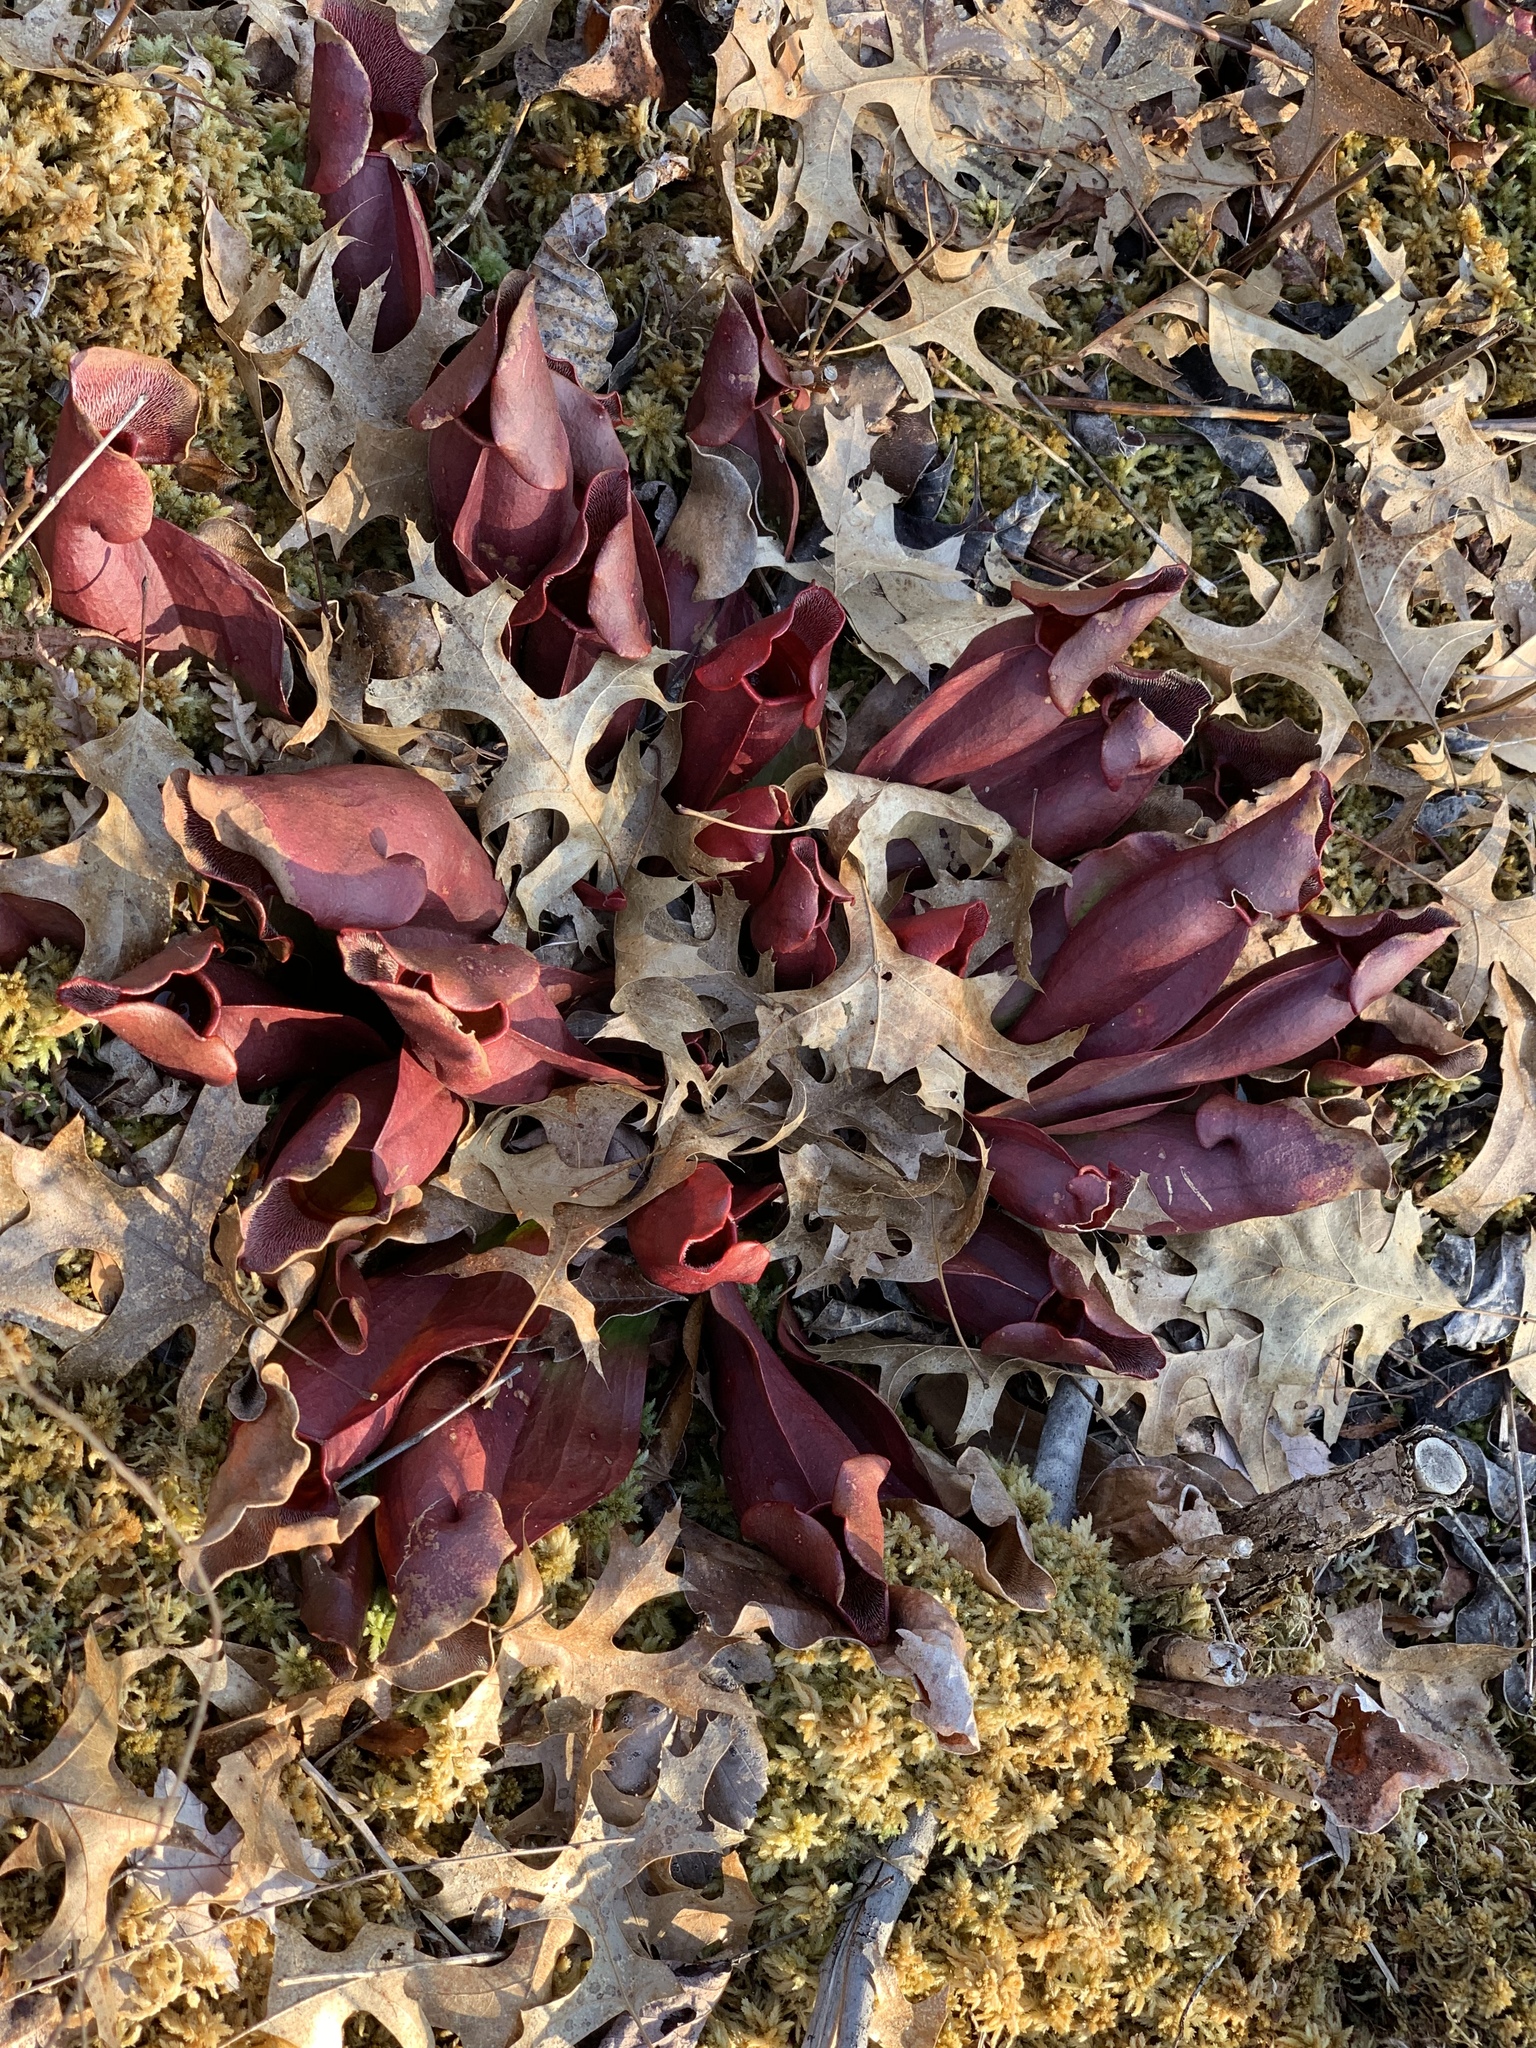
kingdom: Plantae
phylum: Tracheophyta
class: Magnoliopsida
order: Ericales
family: Sarraceniaceae
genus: Sarracenia
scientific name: Sarracenia purpurea
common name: Pitcherplant
